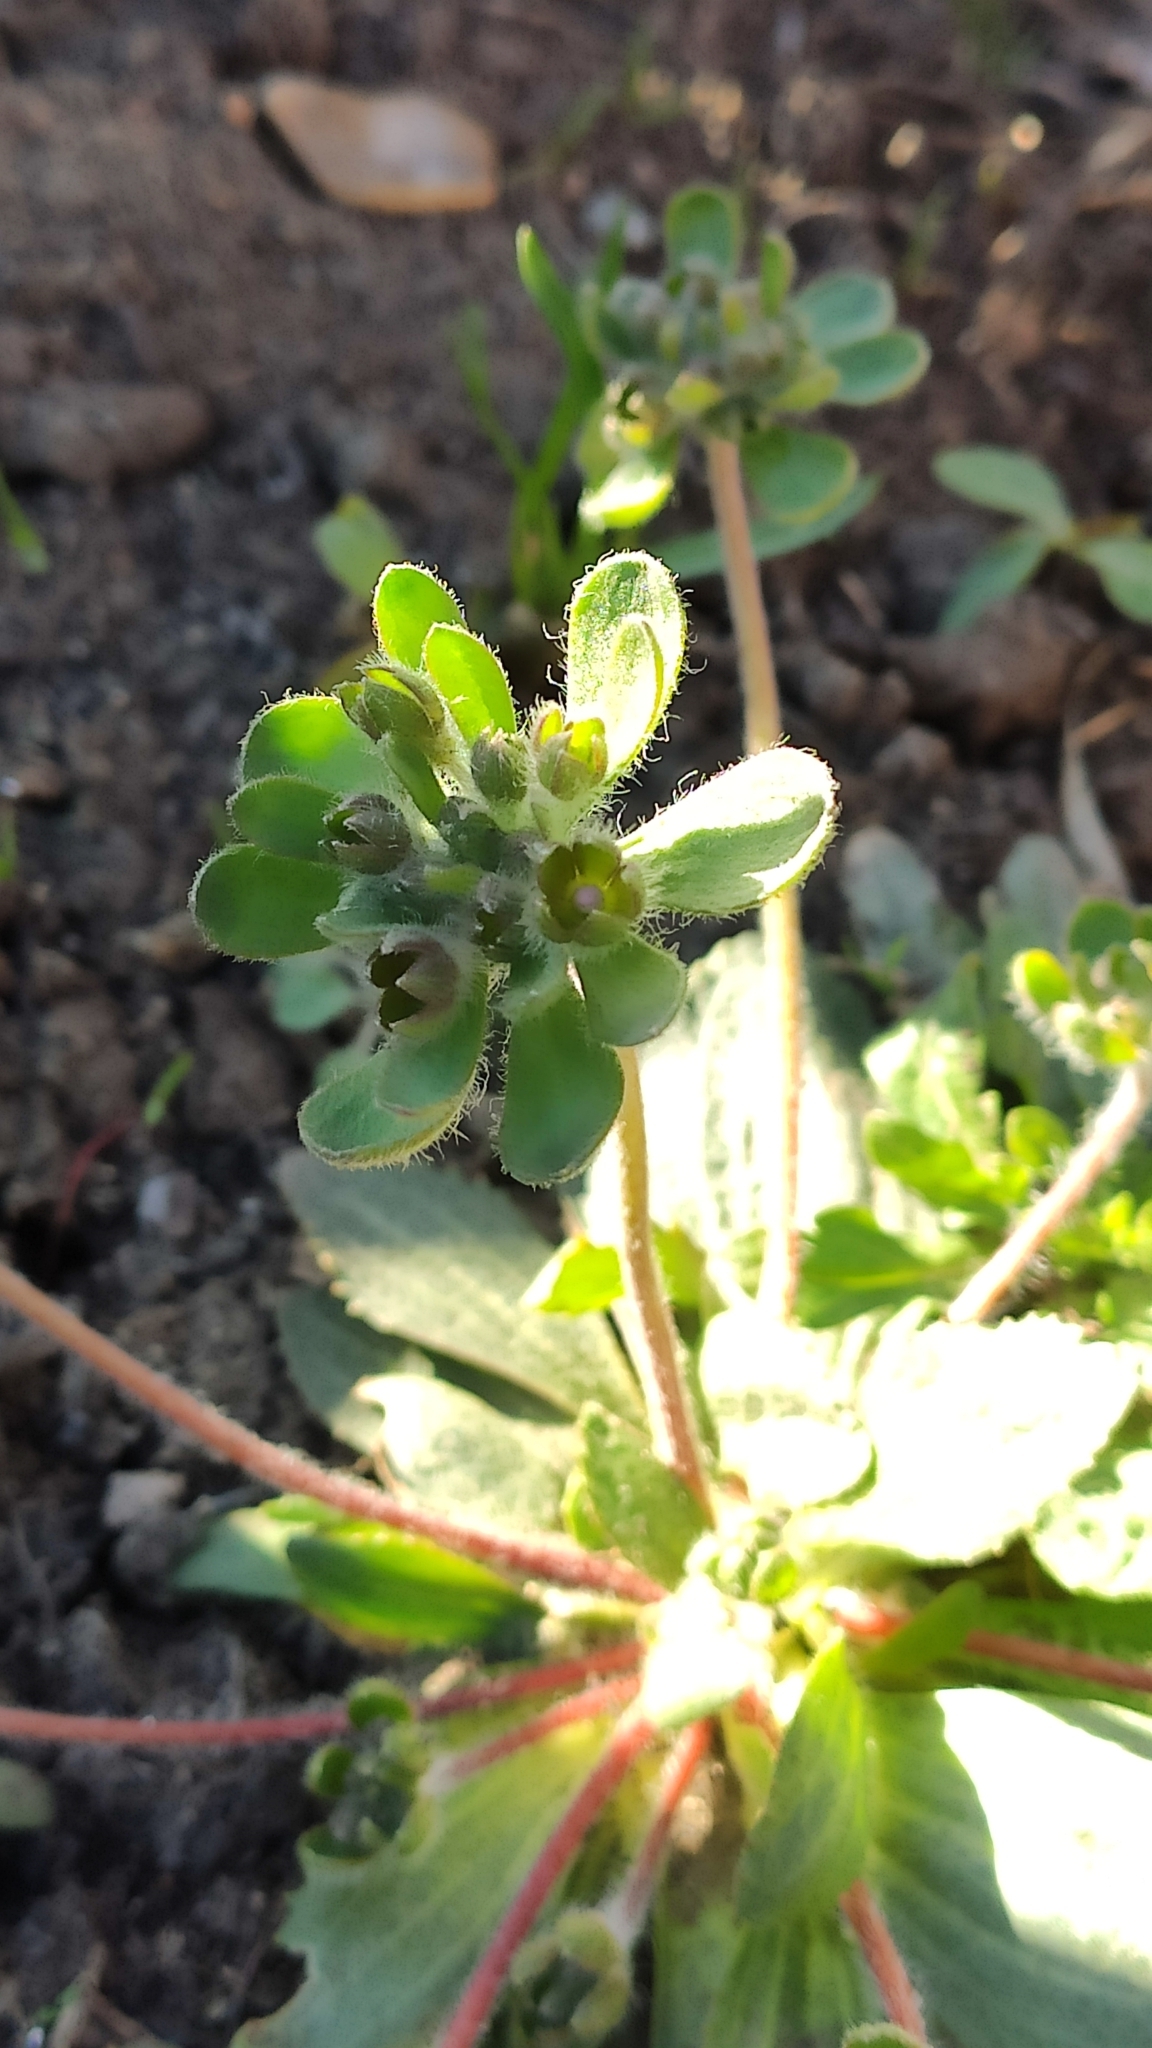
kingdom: Plantae
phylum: Tracheophyta
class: Magnoliopsida
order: Ericales
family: Primulaceae
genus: Androsace
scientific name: Androsace maxima
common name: Annual androsace
